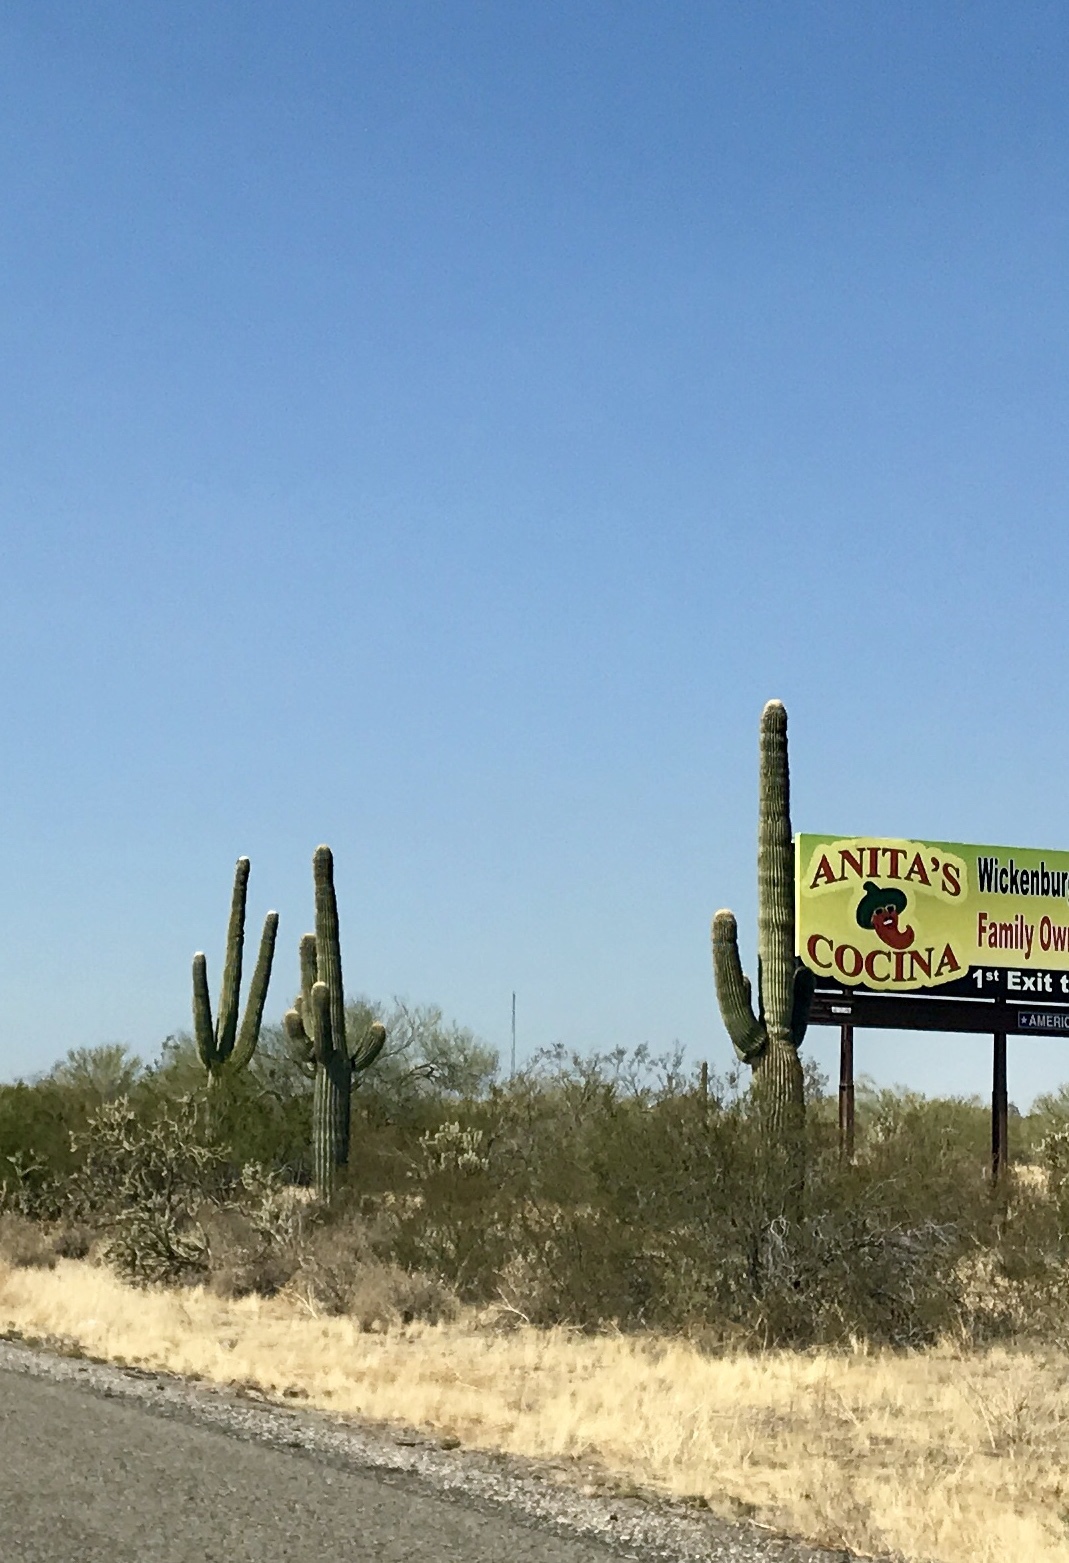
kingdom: Plantae
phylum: Tracheophyta
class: Magnoliopsida
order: Caryophyllales
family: Cactaceae
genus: Carnegiea
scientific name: Carnegiea gigantea
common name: Saguaro
